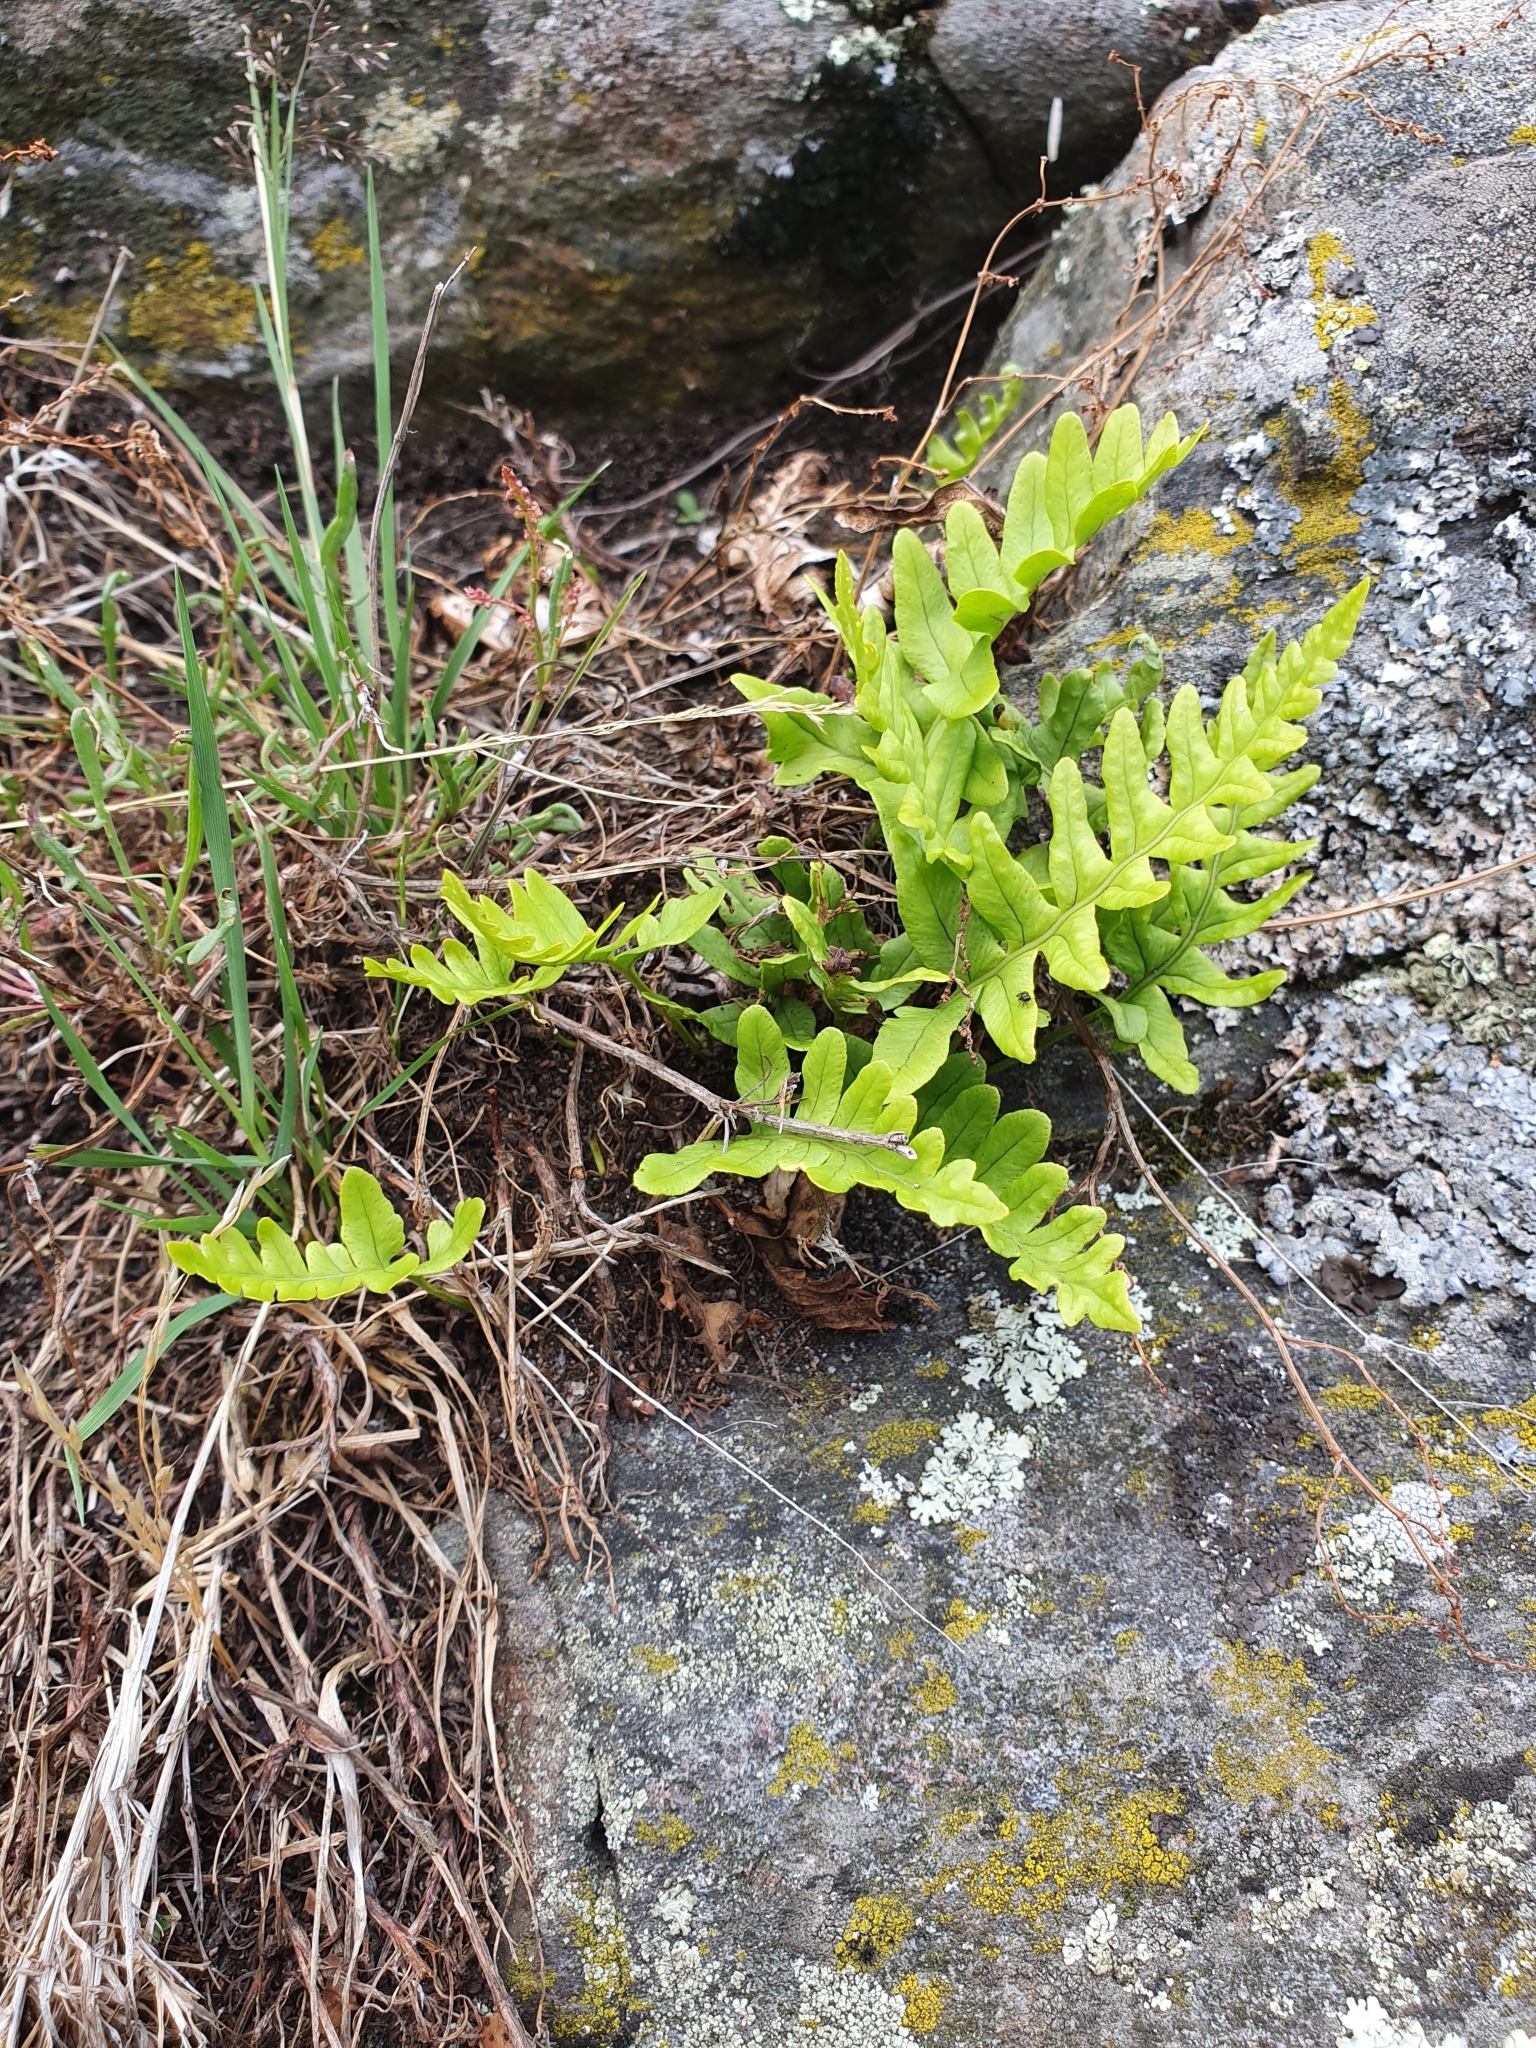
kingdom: Plantae
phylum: Tracheophyta
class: Polypodiopsida
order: Polypodiales
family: Polypodiaceae
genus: Polypodium
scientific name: Polypodium vulgare
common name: Common polypody
